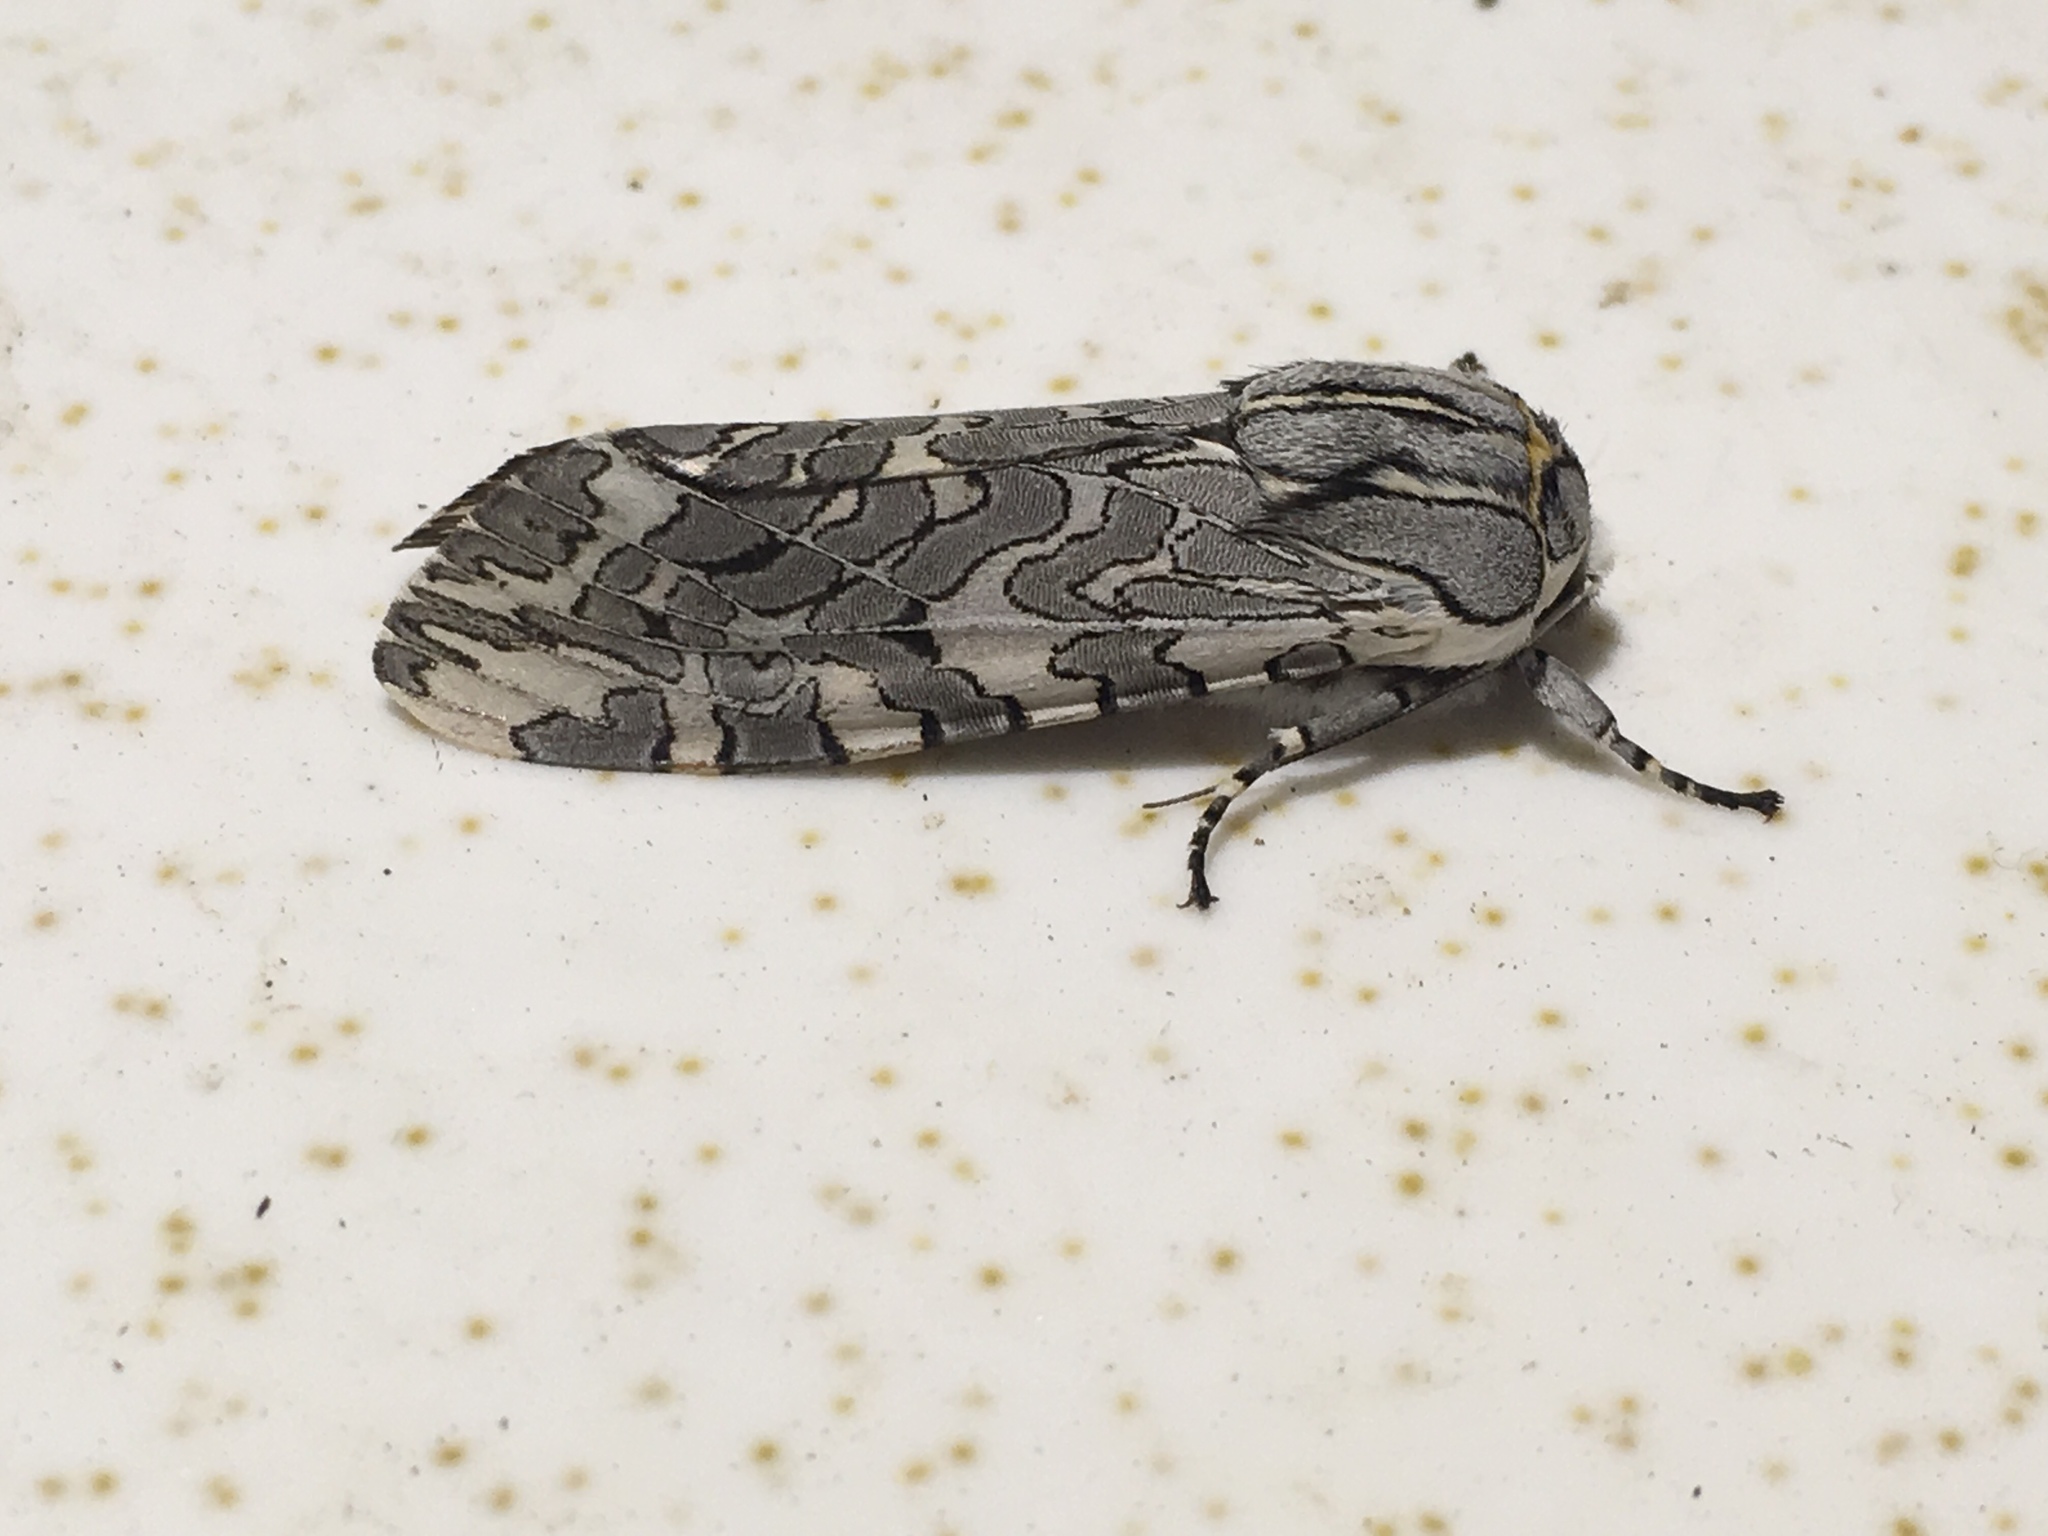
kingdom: Animalia
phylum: Arthropoda
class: Insecta
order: Lepidoptera
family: Erebidae
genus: Arachnis
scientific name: Arachnis picta
